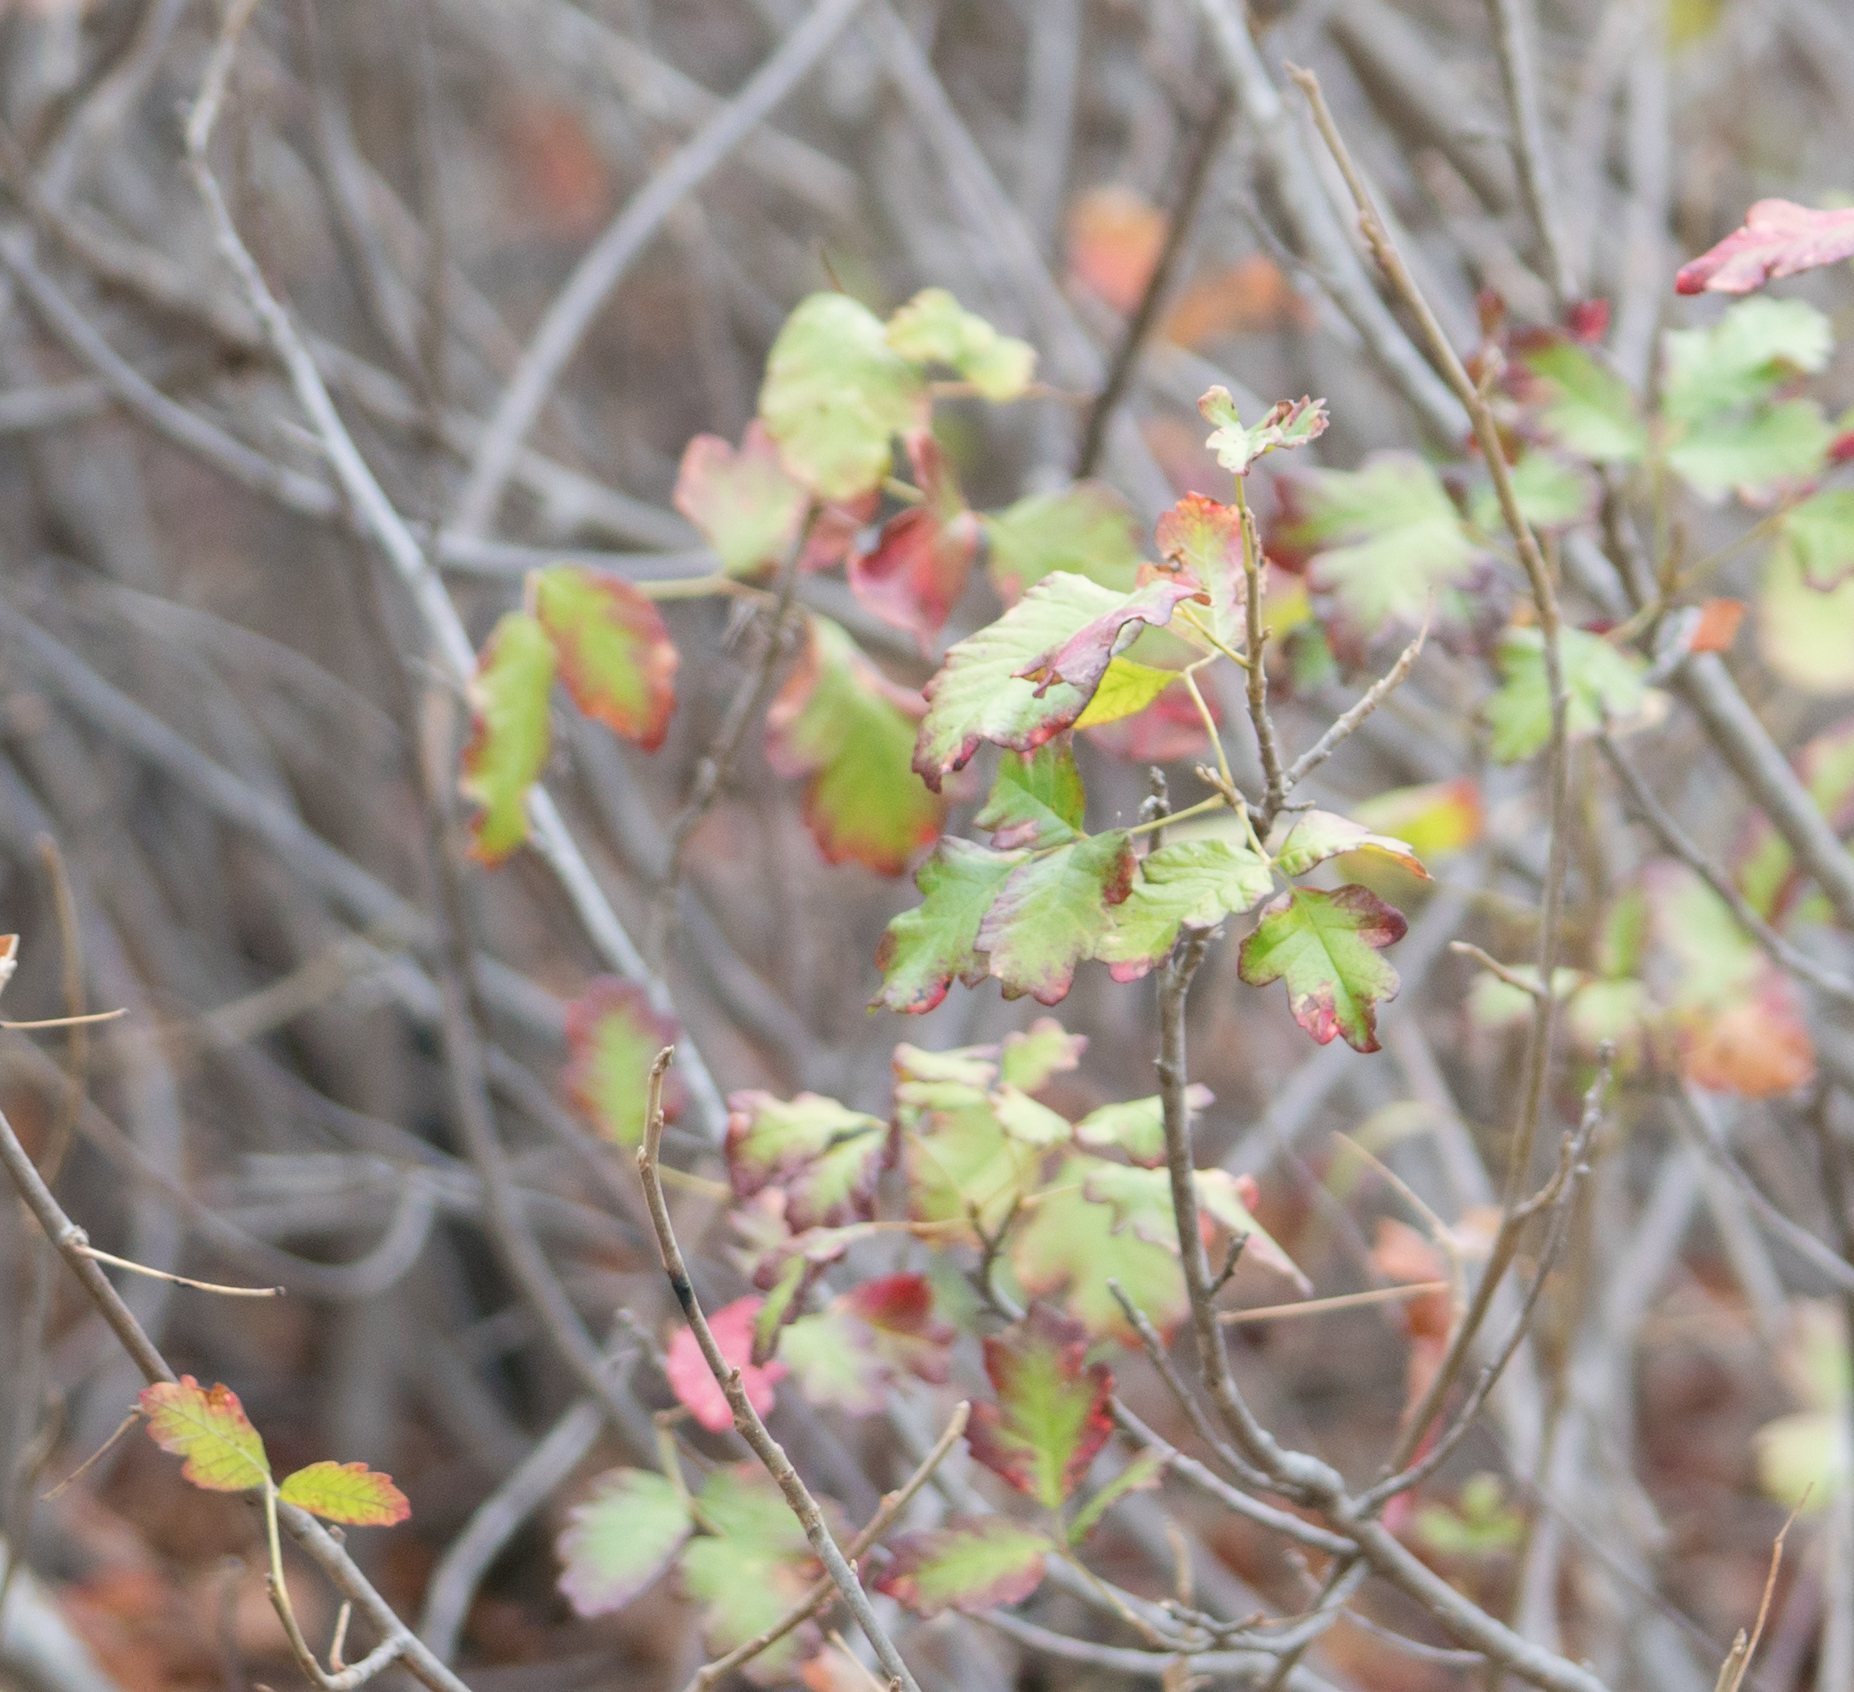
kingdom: Plantae
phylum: Tracheophyta
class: Magnoliopsida
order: Sapindales
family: Anacardiaceae
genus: Toxicodendron
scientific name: Toxicodendron diversilobum
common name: Pacific poison-oak
